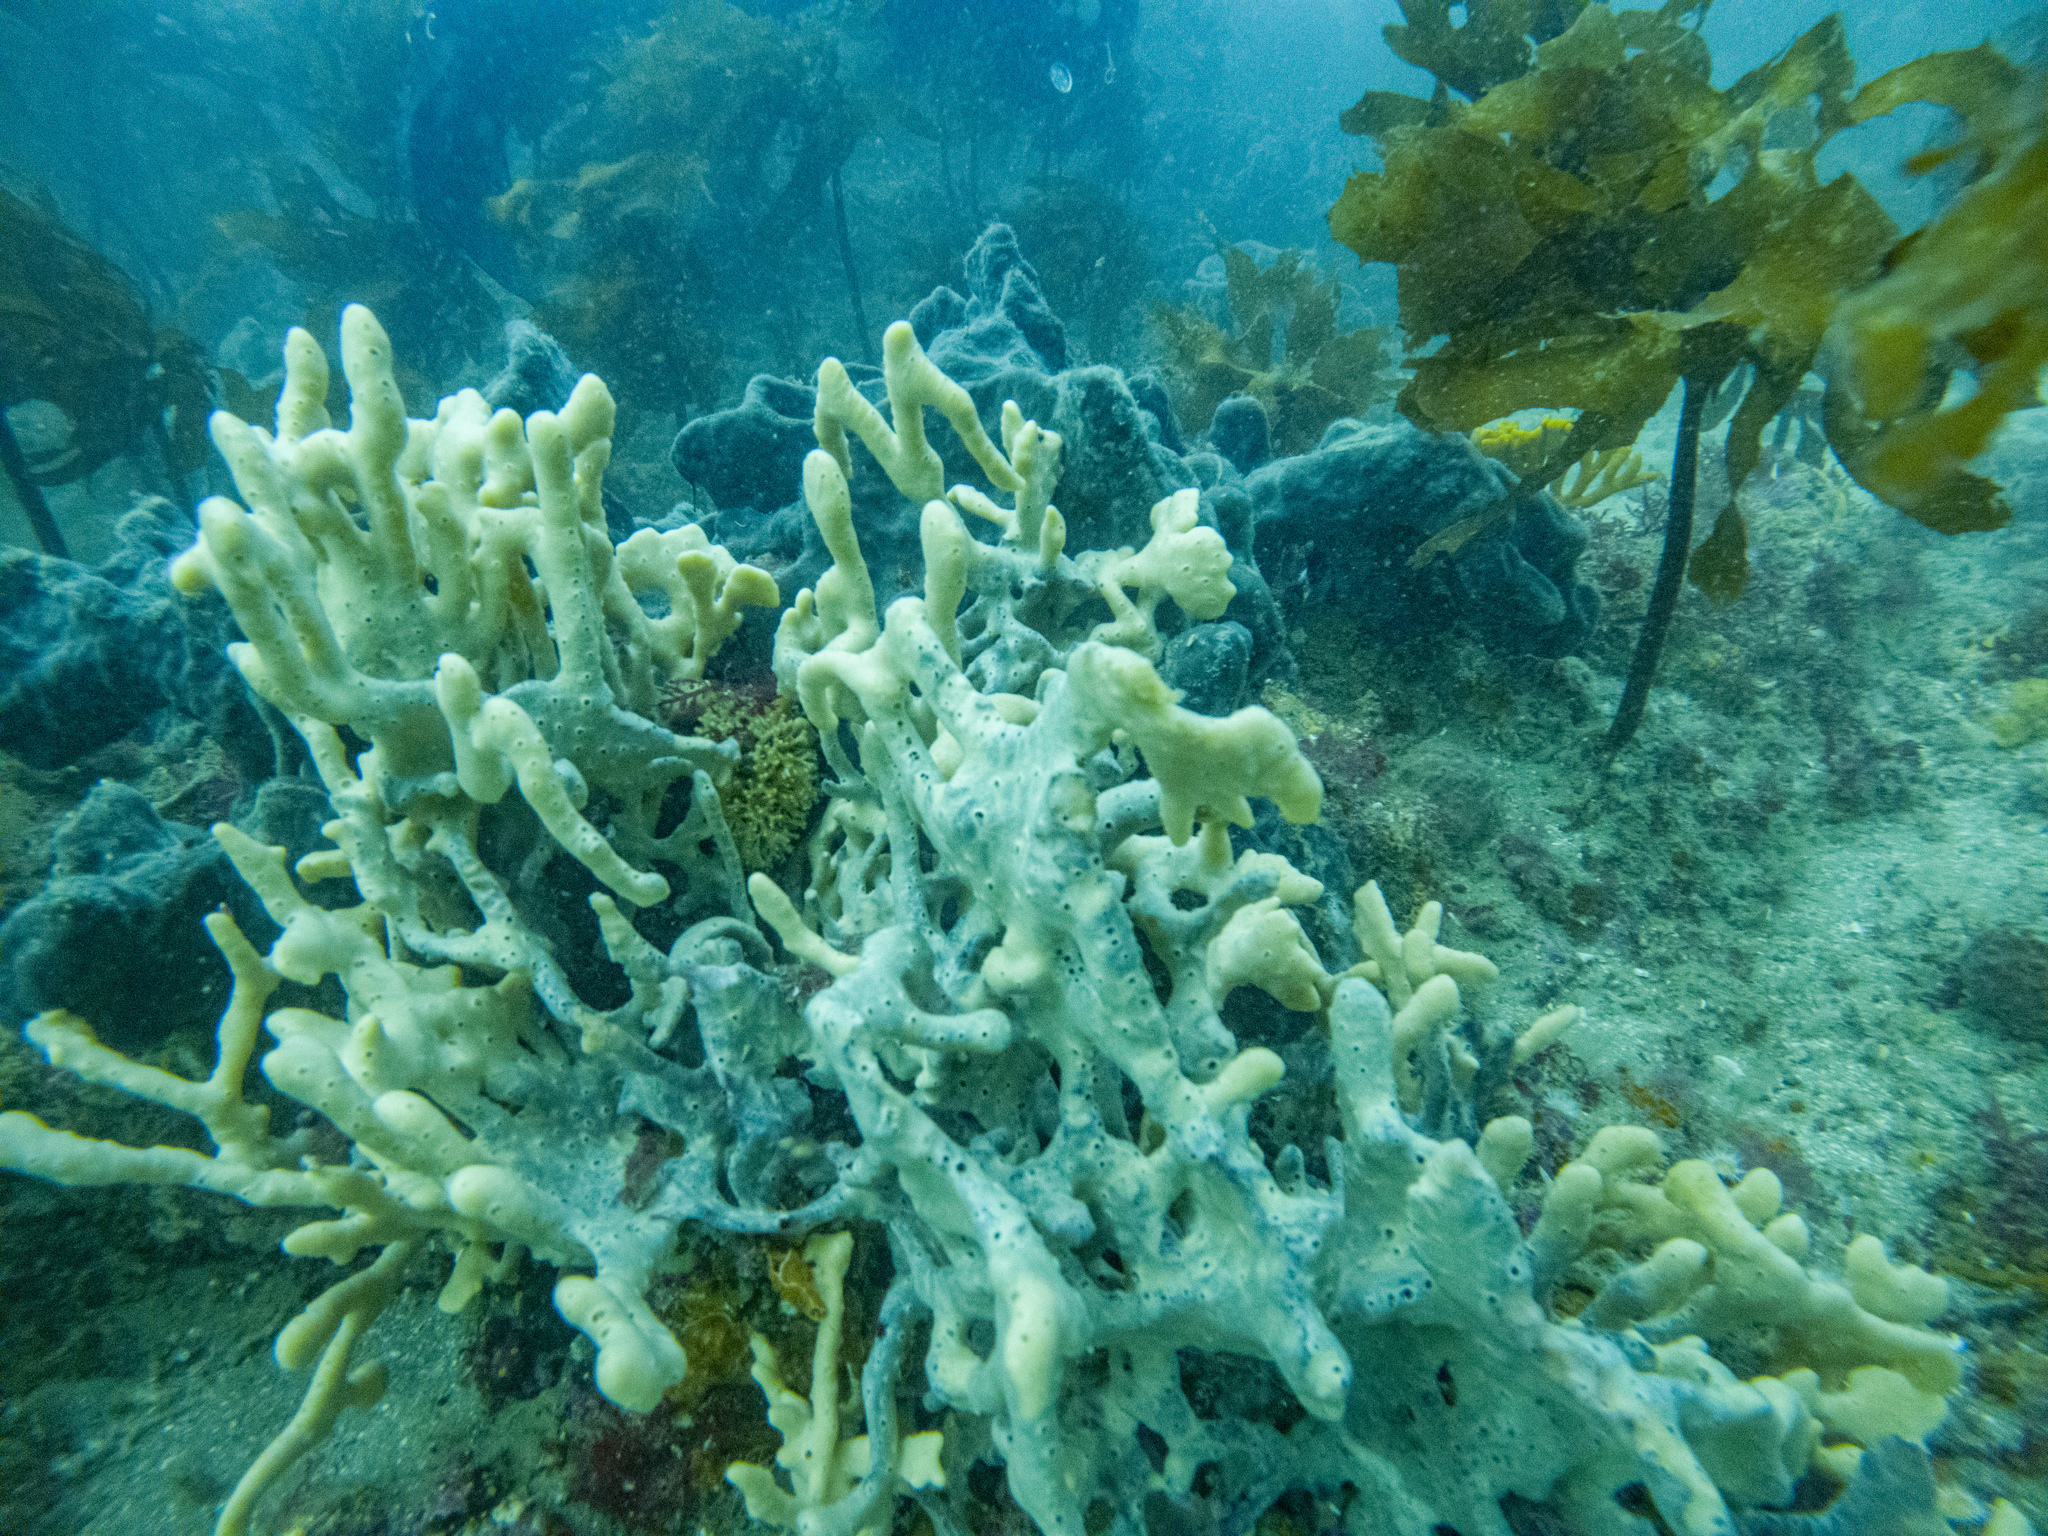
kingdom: Animalia
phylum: Porifera
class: Demospongiae
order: Poecilosclerida
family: Acarnidae
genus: Iophon
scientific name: Iophon minor
